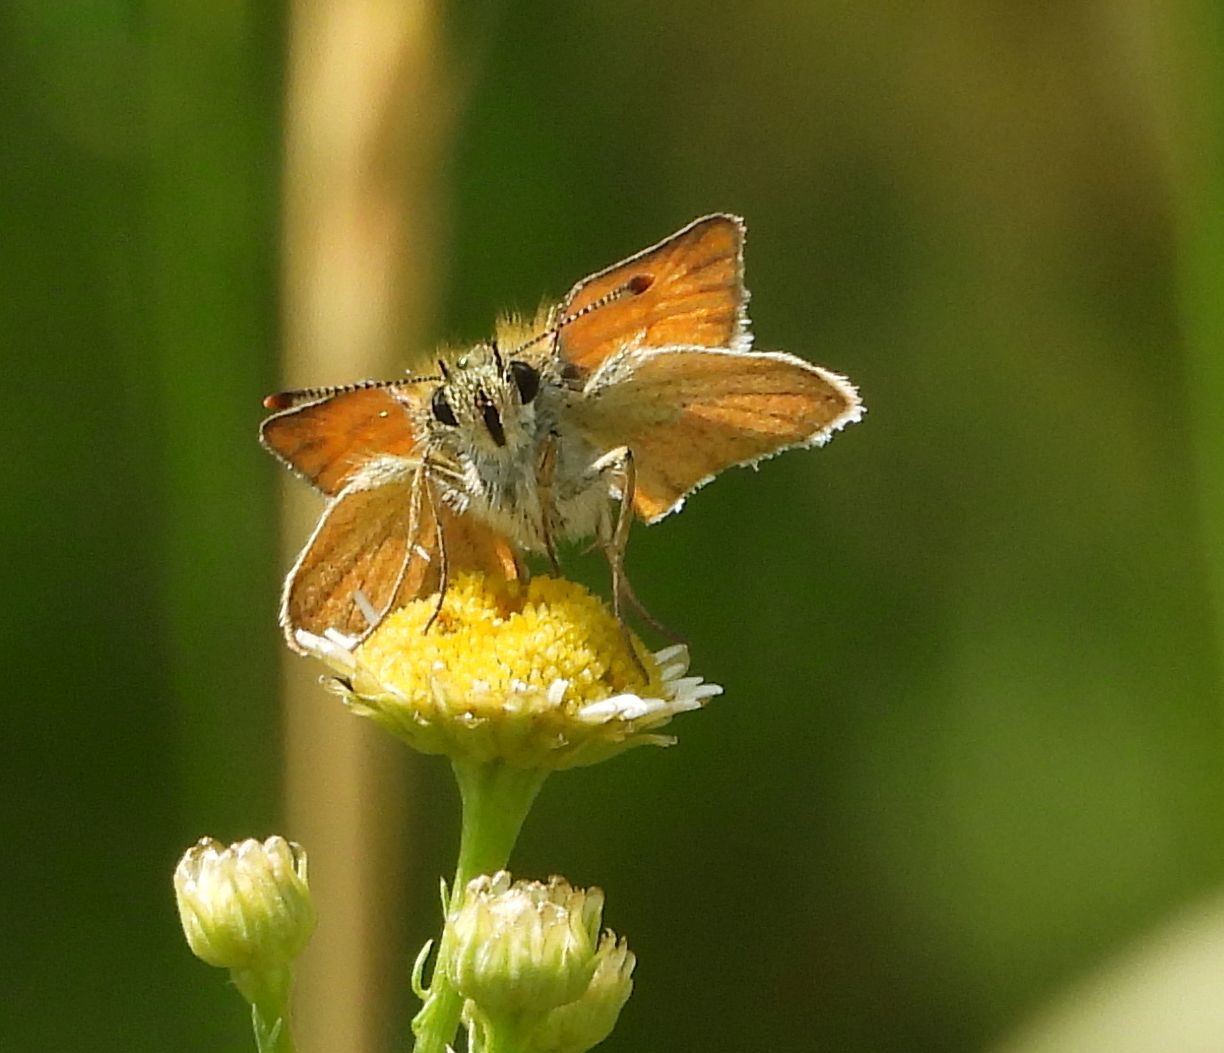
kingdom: Animalia
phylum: Arthropoda
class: Insecta
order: Lepidoptera
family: Hesperiidae
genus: Thymelicus
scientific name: Thymelicus lineola
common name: Essex skipper
